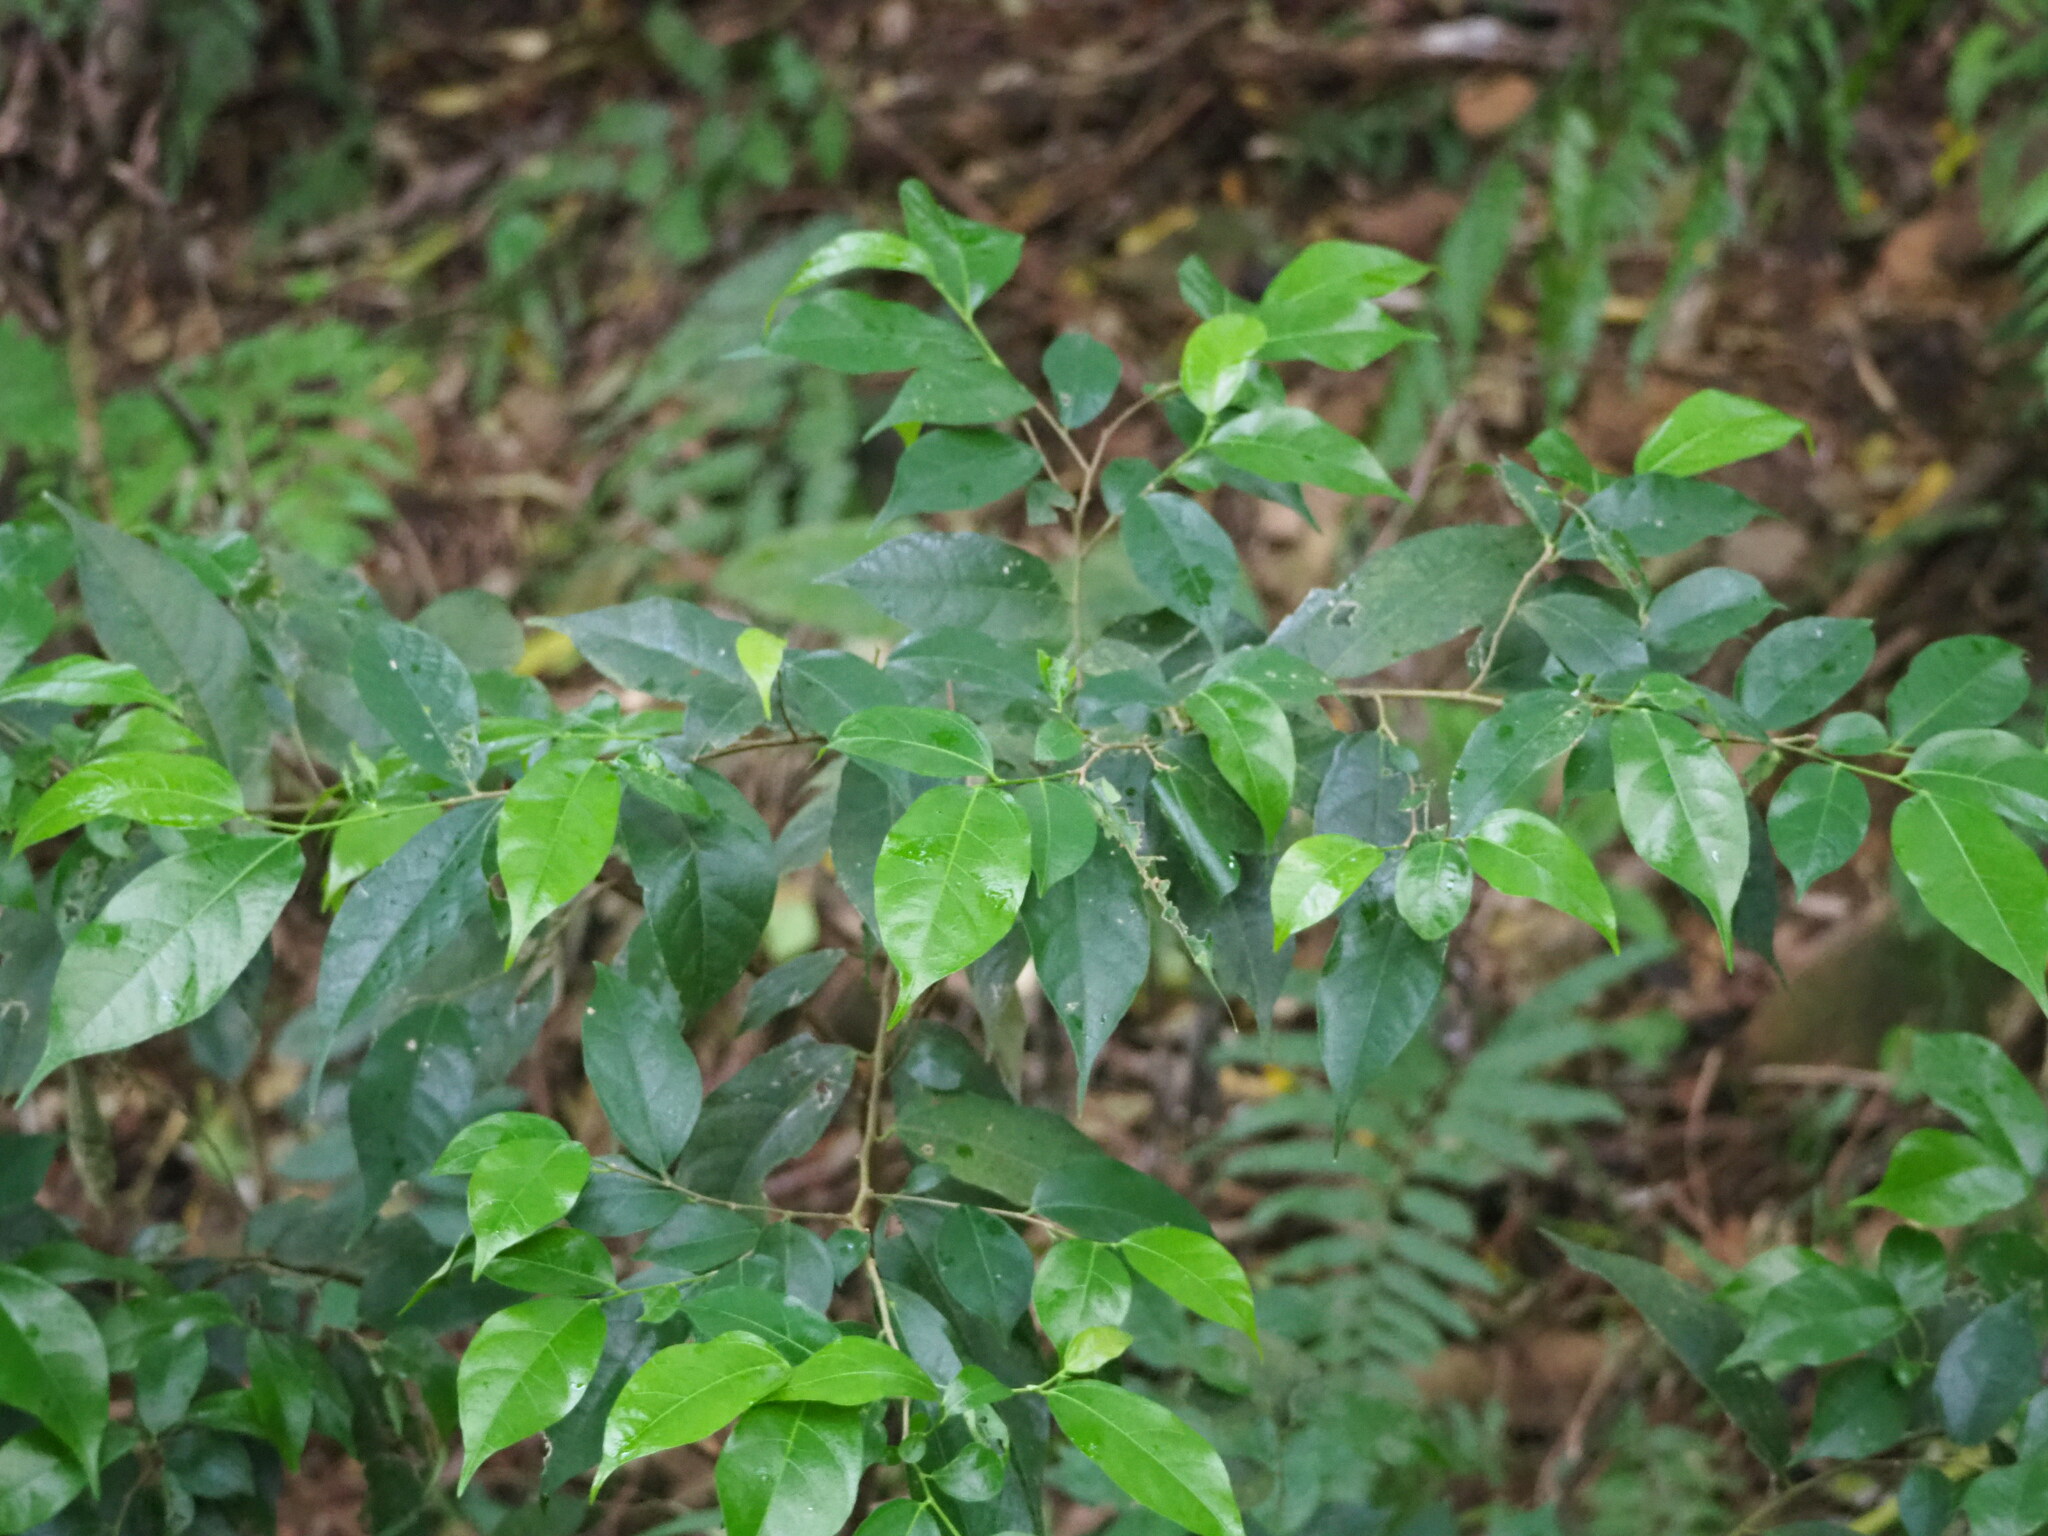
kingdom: Plantae
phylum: Tracheophyta
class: Magnoliopsida
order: Rosales
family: Moraceae
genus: Ficus
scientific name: Ficus ampelos
